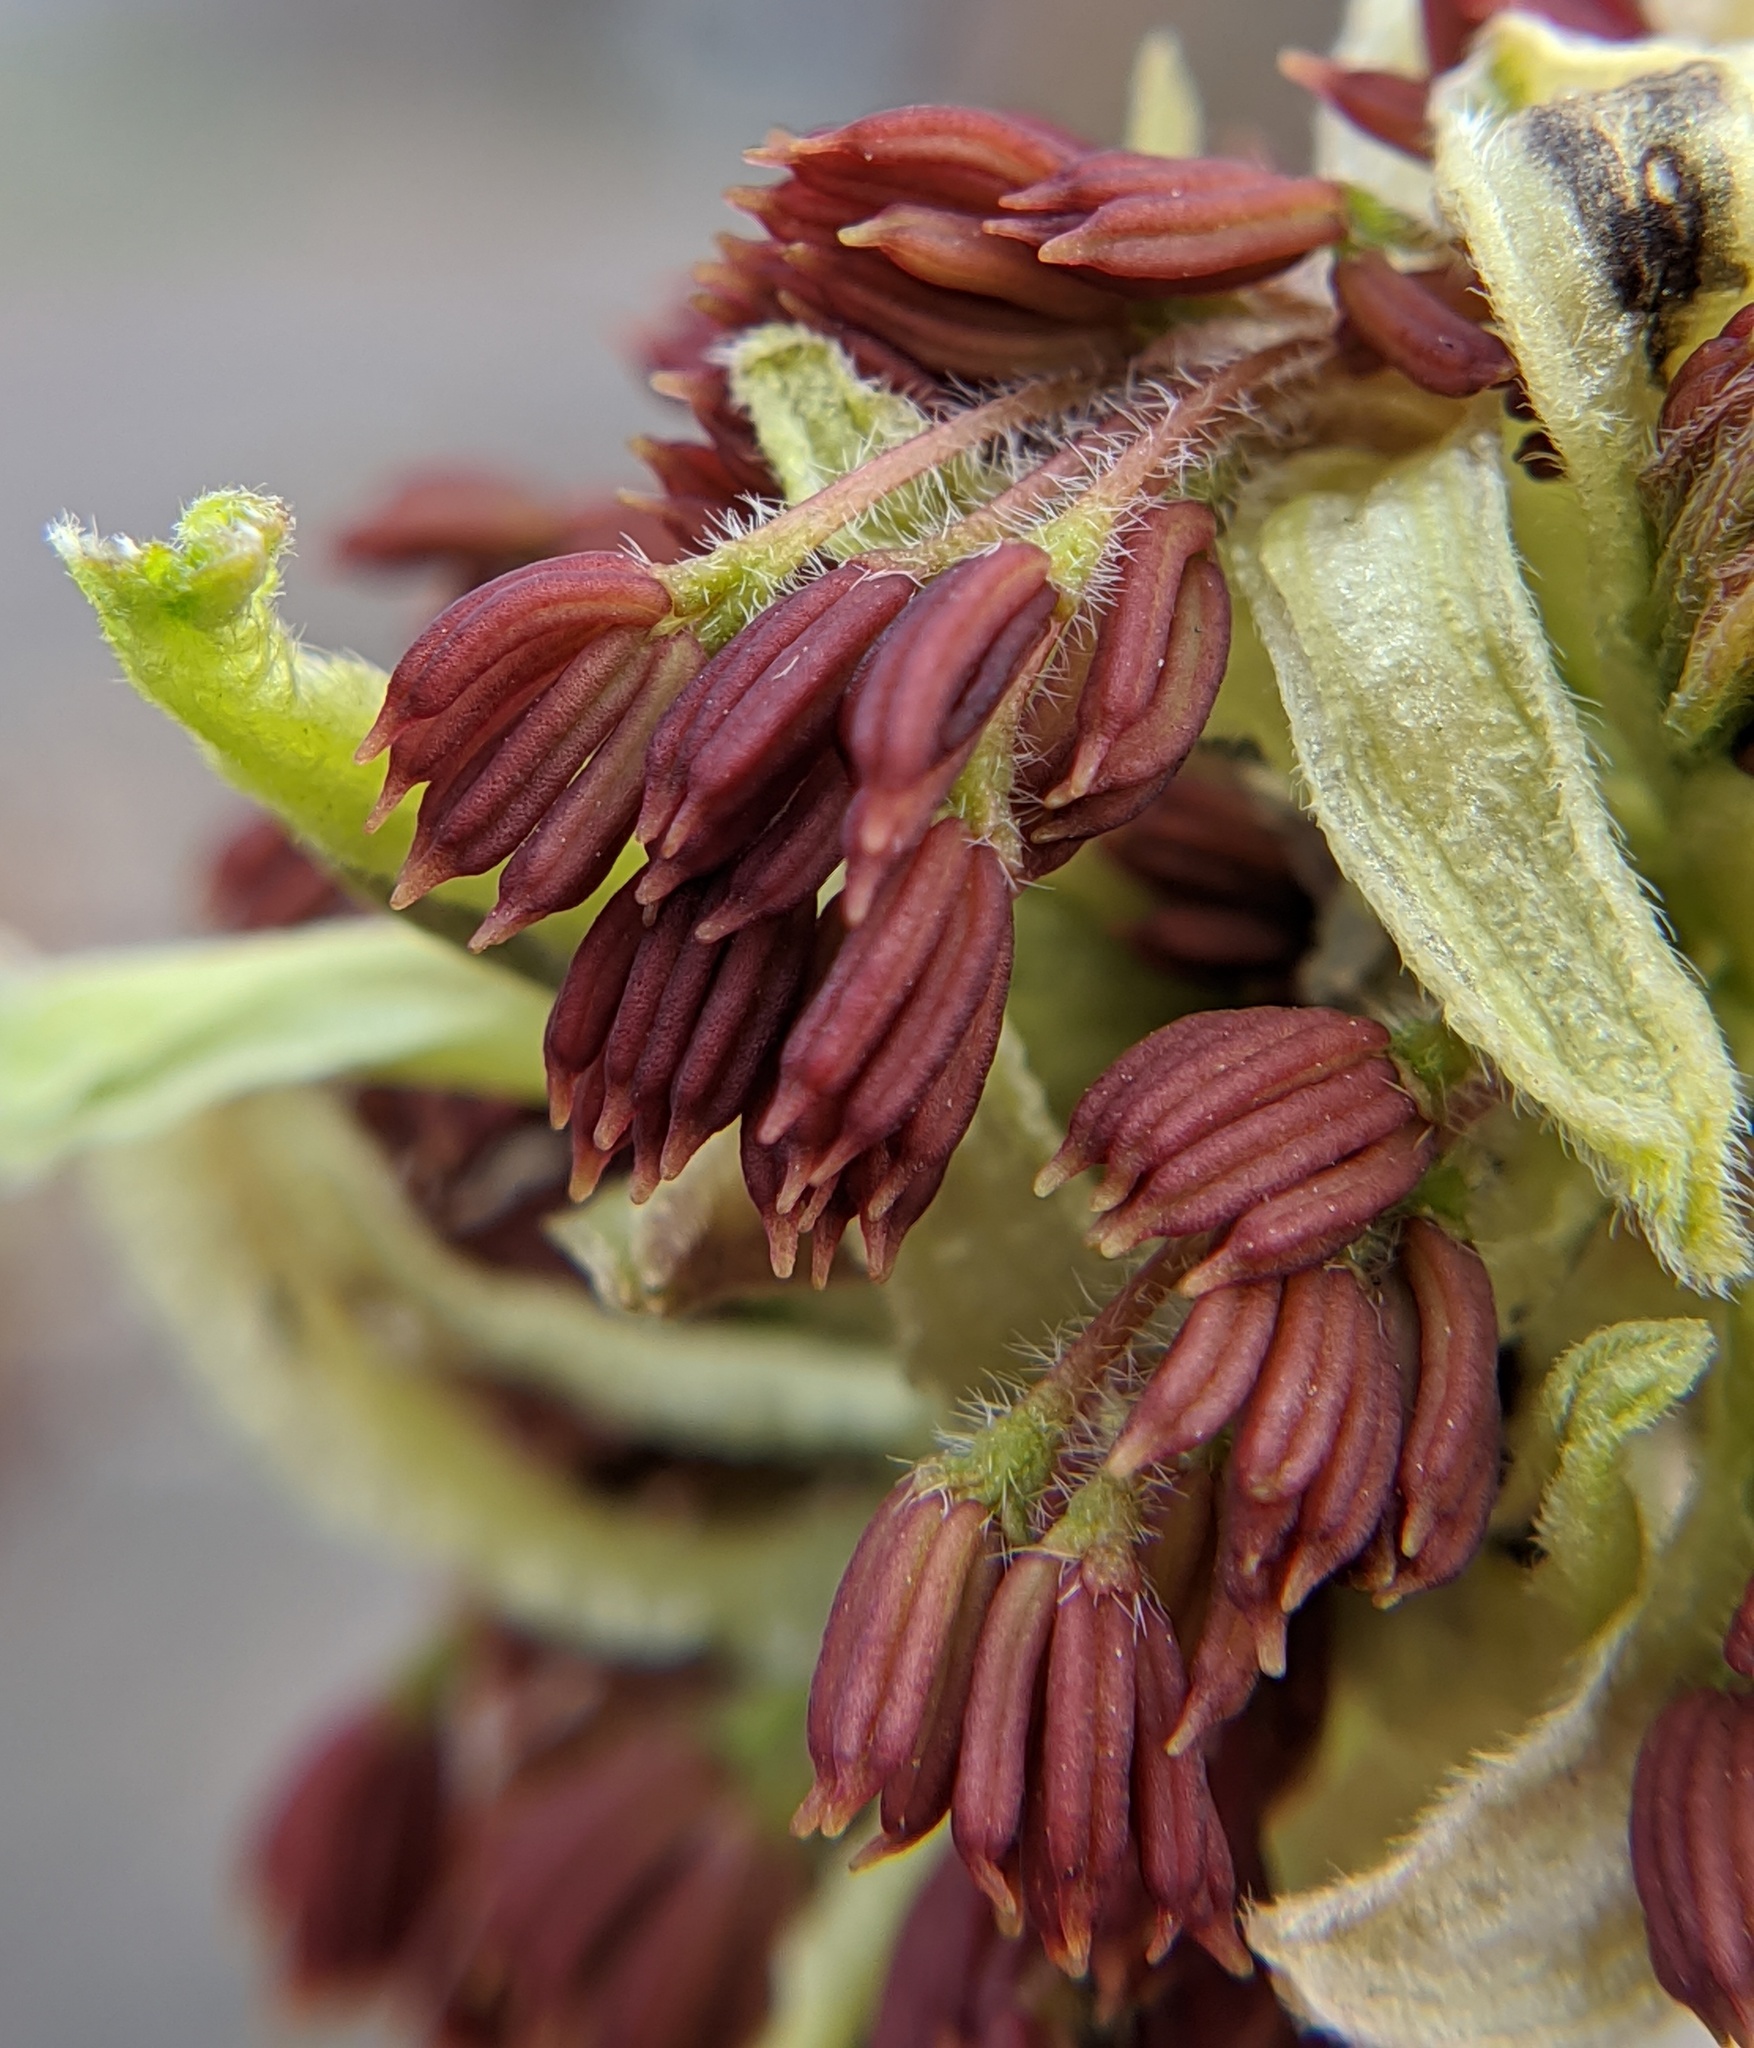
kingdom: Plantae
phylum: Tracheophyta
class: Magnoliopsida
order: Sapindales
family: Sapindaceae
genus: Acer
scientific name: Acer negundo
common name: Ashleaf maple
